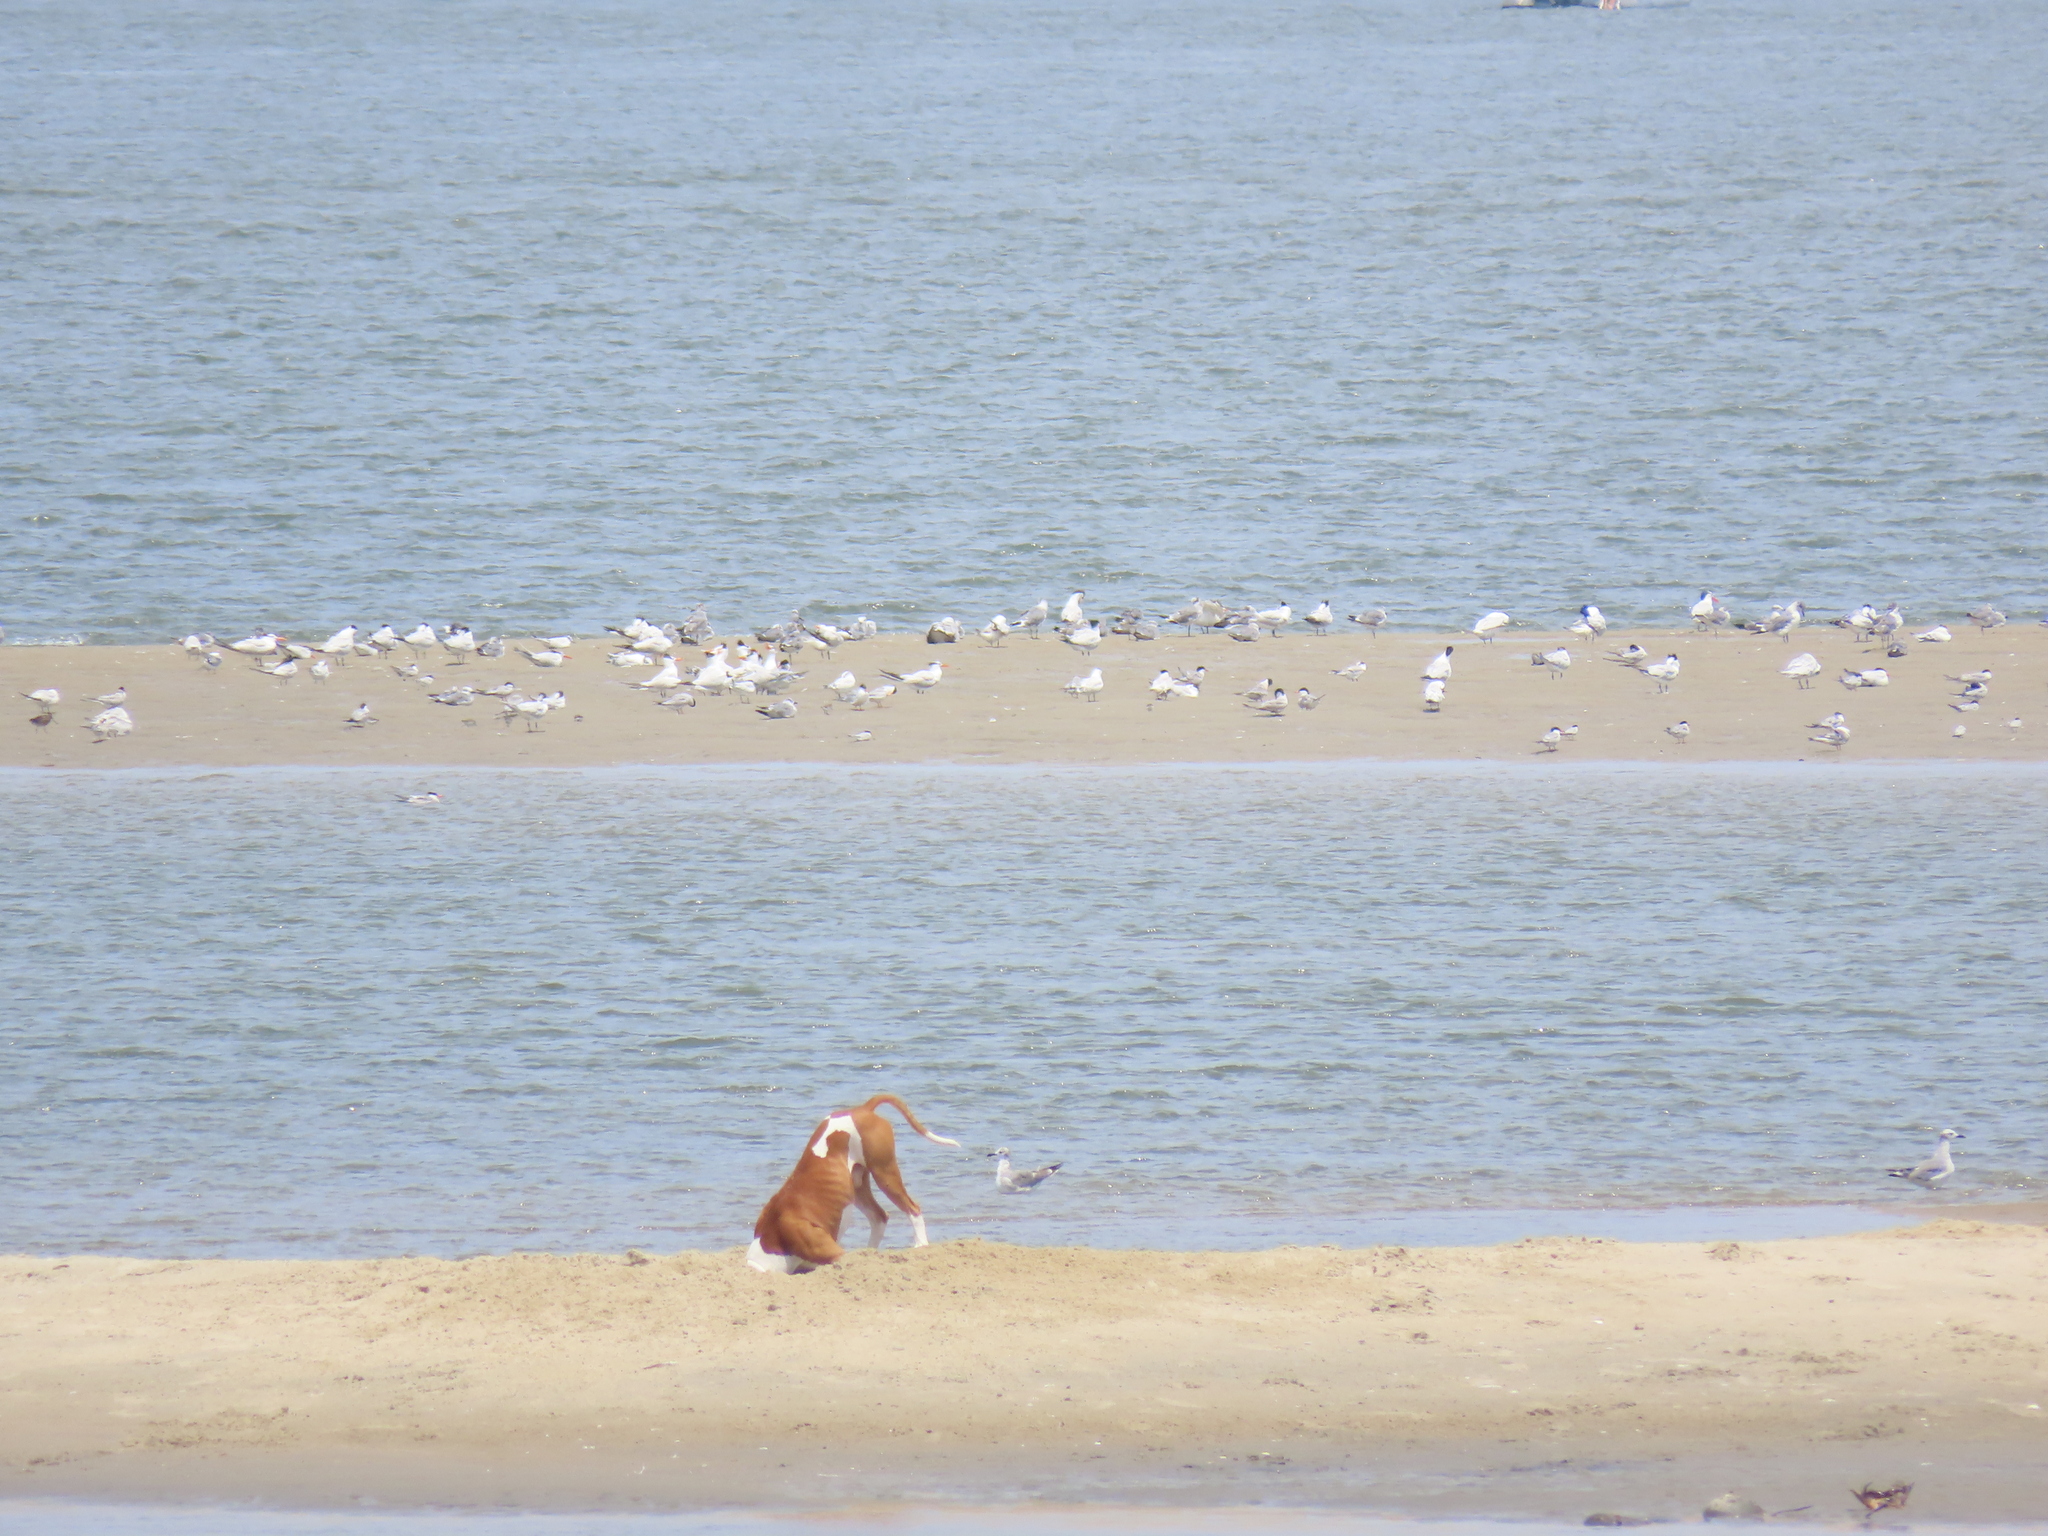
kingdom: Animalia
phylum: Chordata
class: Aves
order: Charadriiformes
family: Laridae
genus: Leucophaeus
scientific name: Leucophaeus atricilla
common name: Laughing gull
